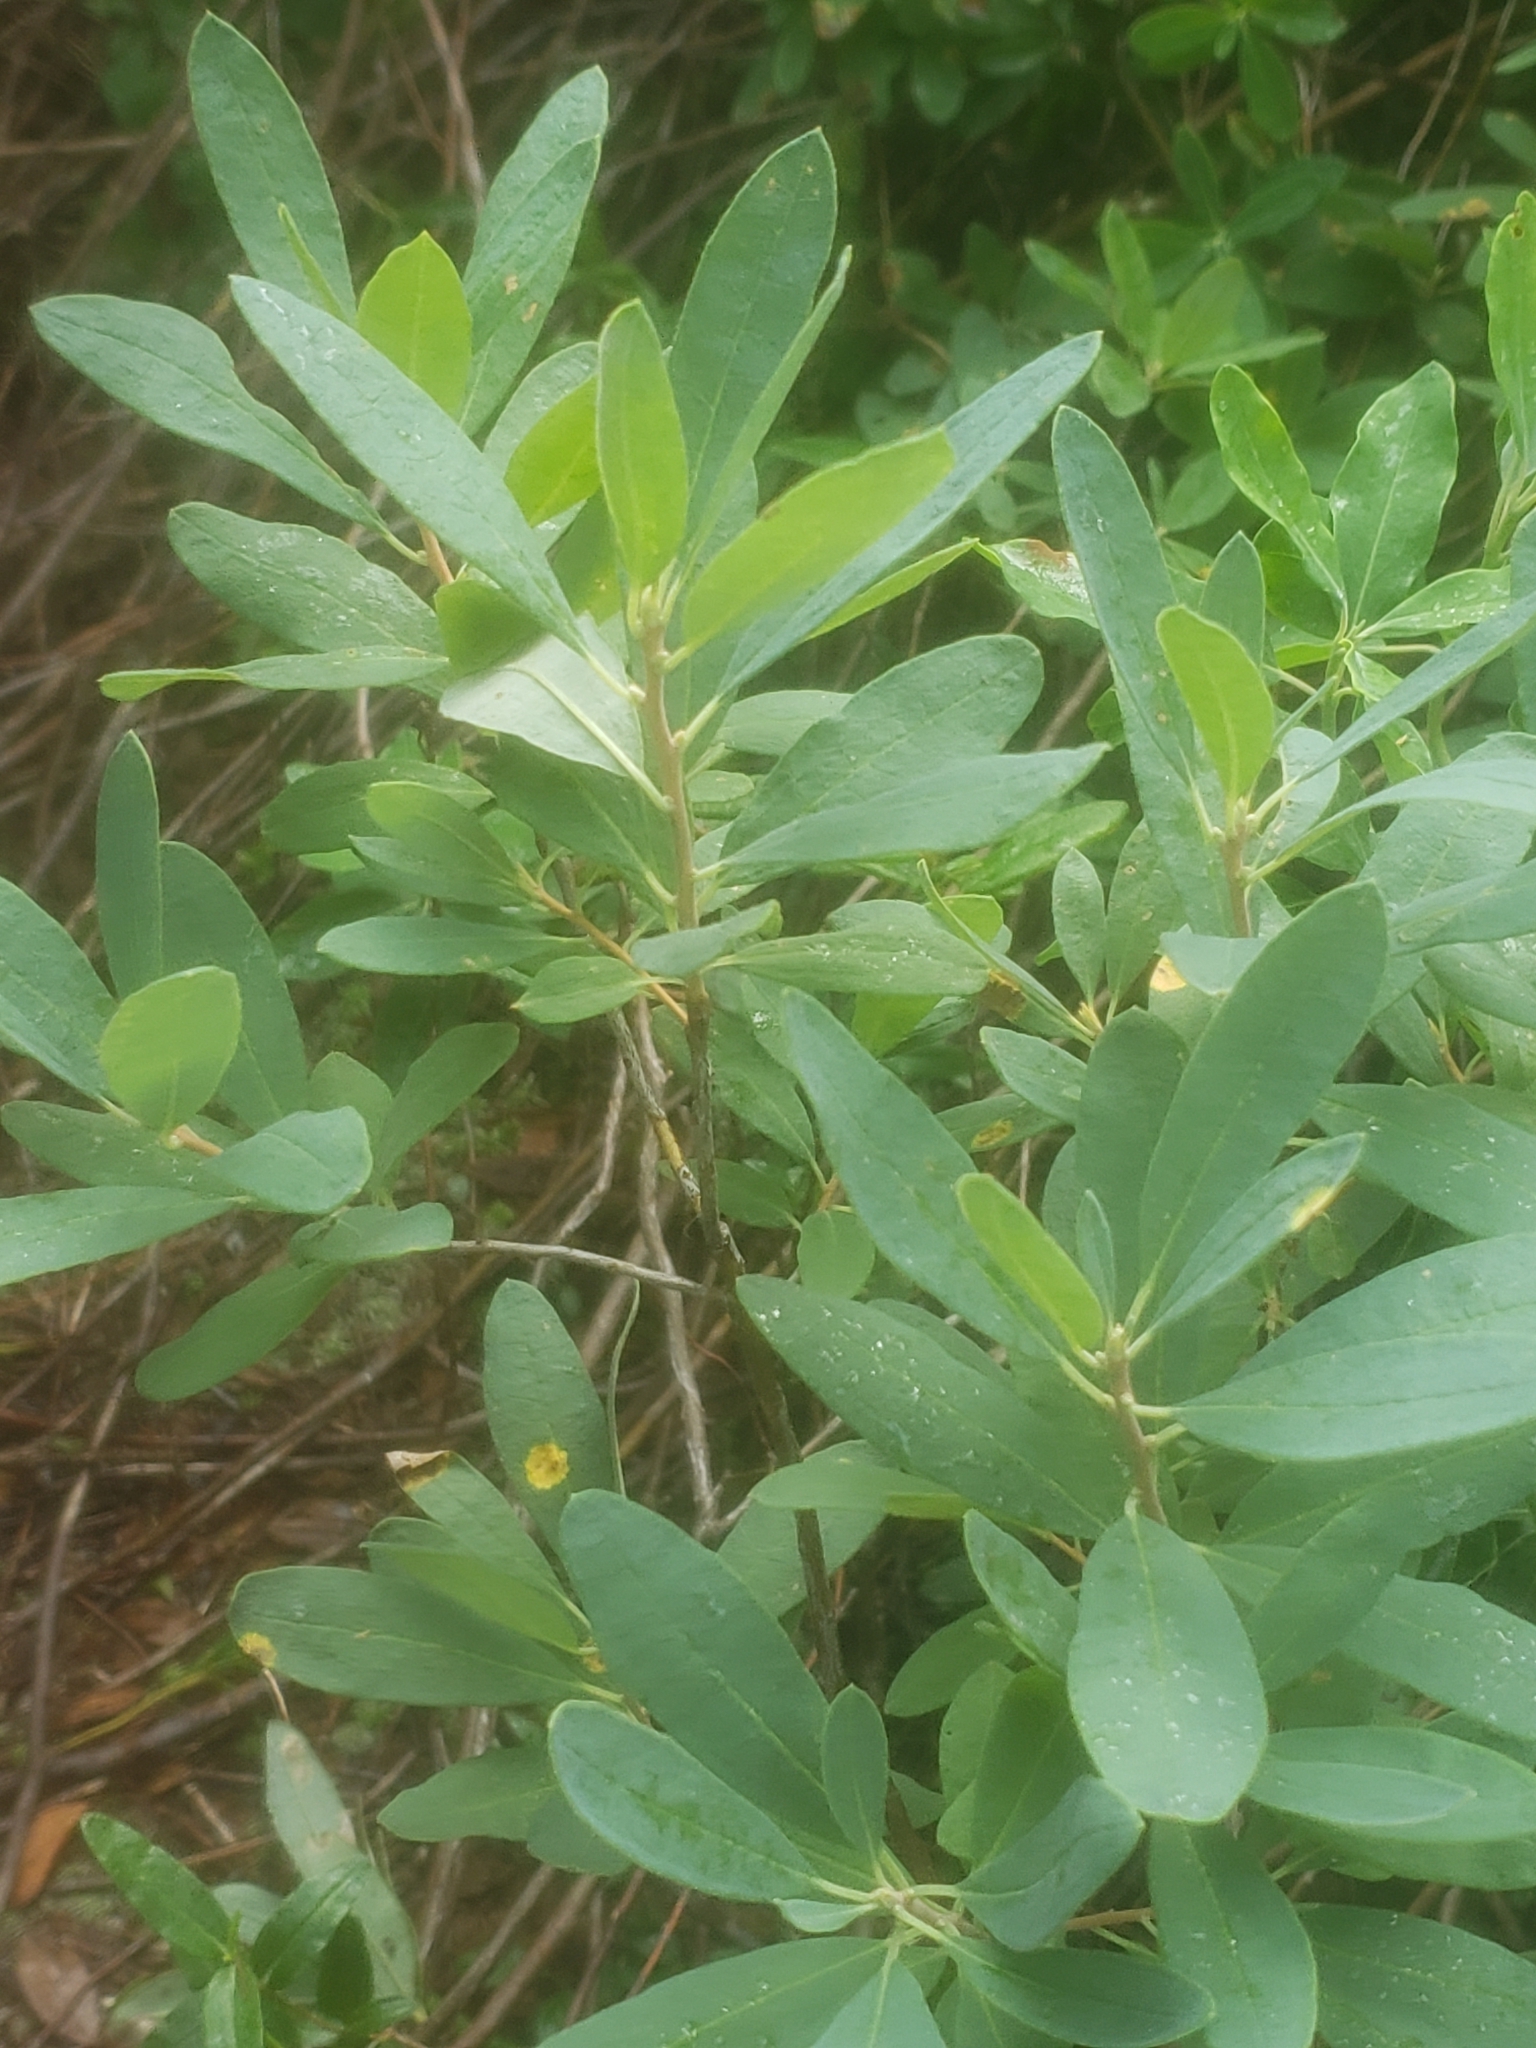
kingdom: Plantae
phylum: Tracheophyta
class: Magnoliopsida
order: Ericales
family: Ericaceae
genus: Rhododendron
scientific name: Rhododendron canadense
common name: Rhodora
